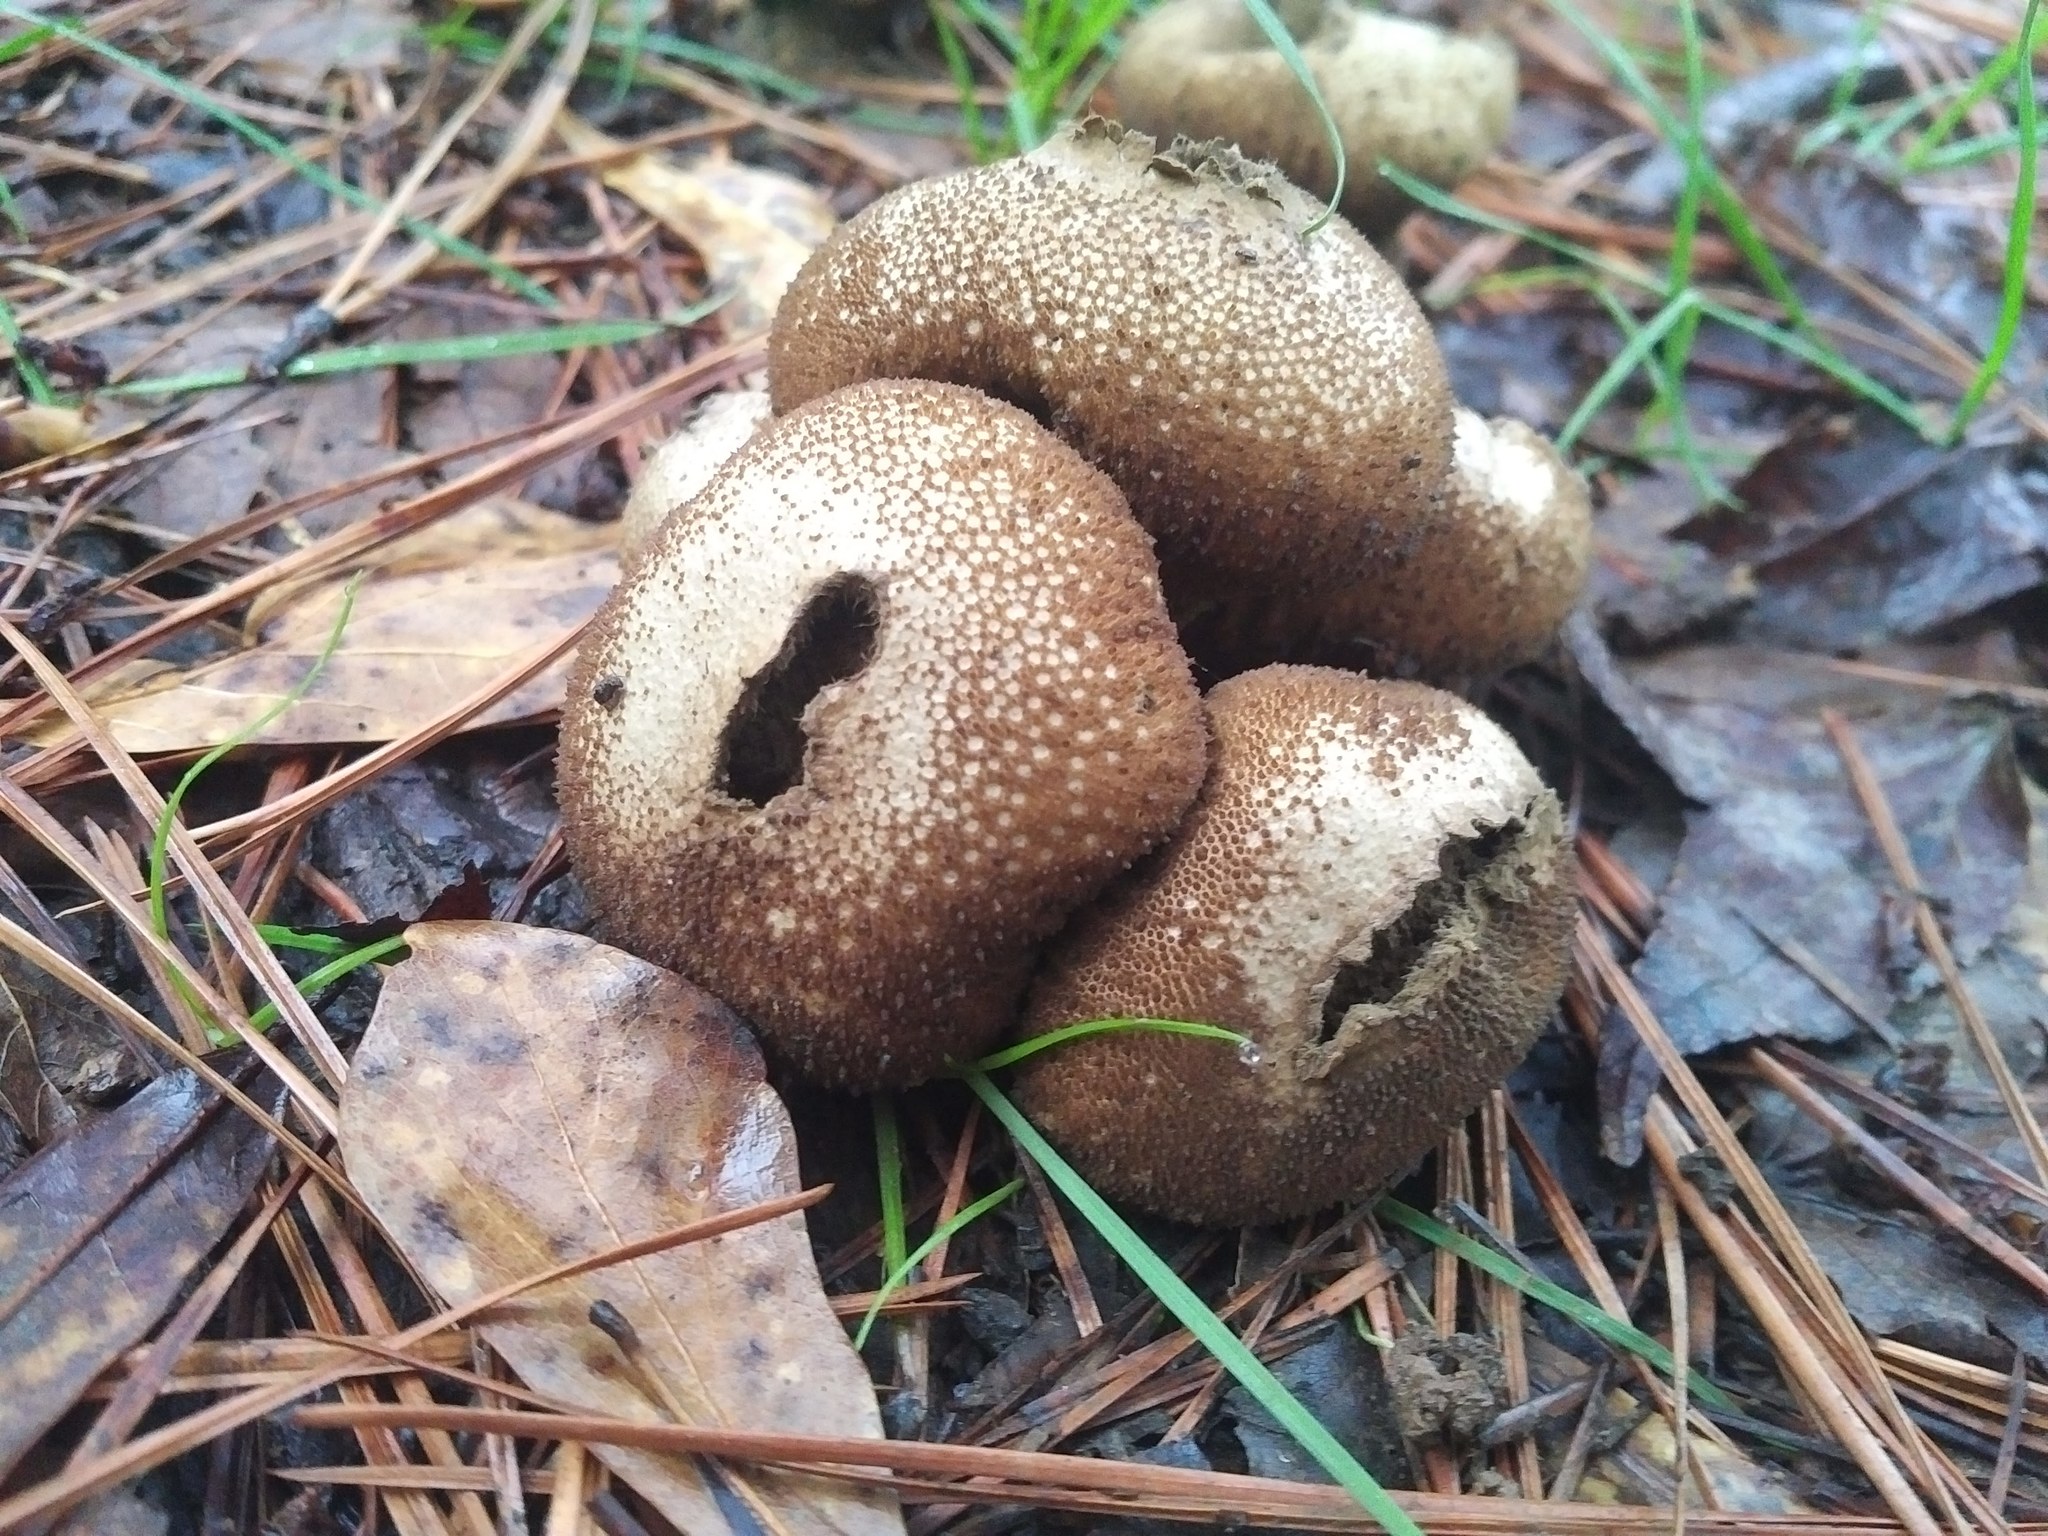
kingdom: Fungi
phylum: Basidiomycota
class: Agaricomycetes
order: Agaricales
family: Lycoperdaceae
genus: Lycoperdon
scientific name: Lycoperdon perlatum
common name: Common puffball
